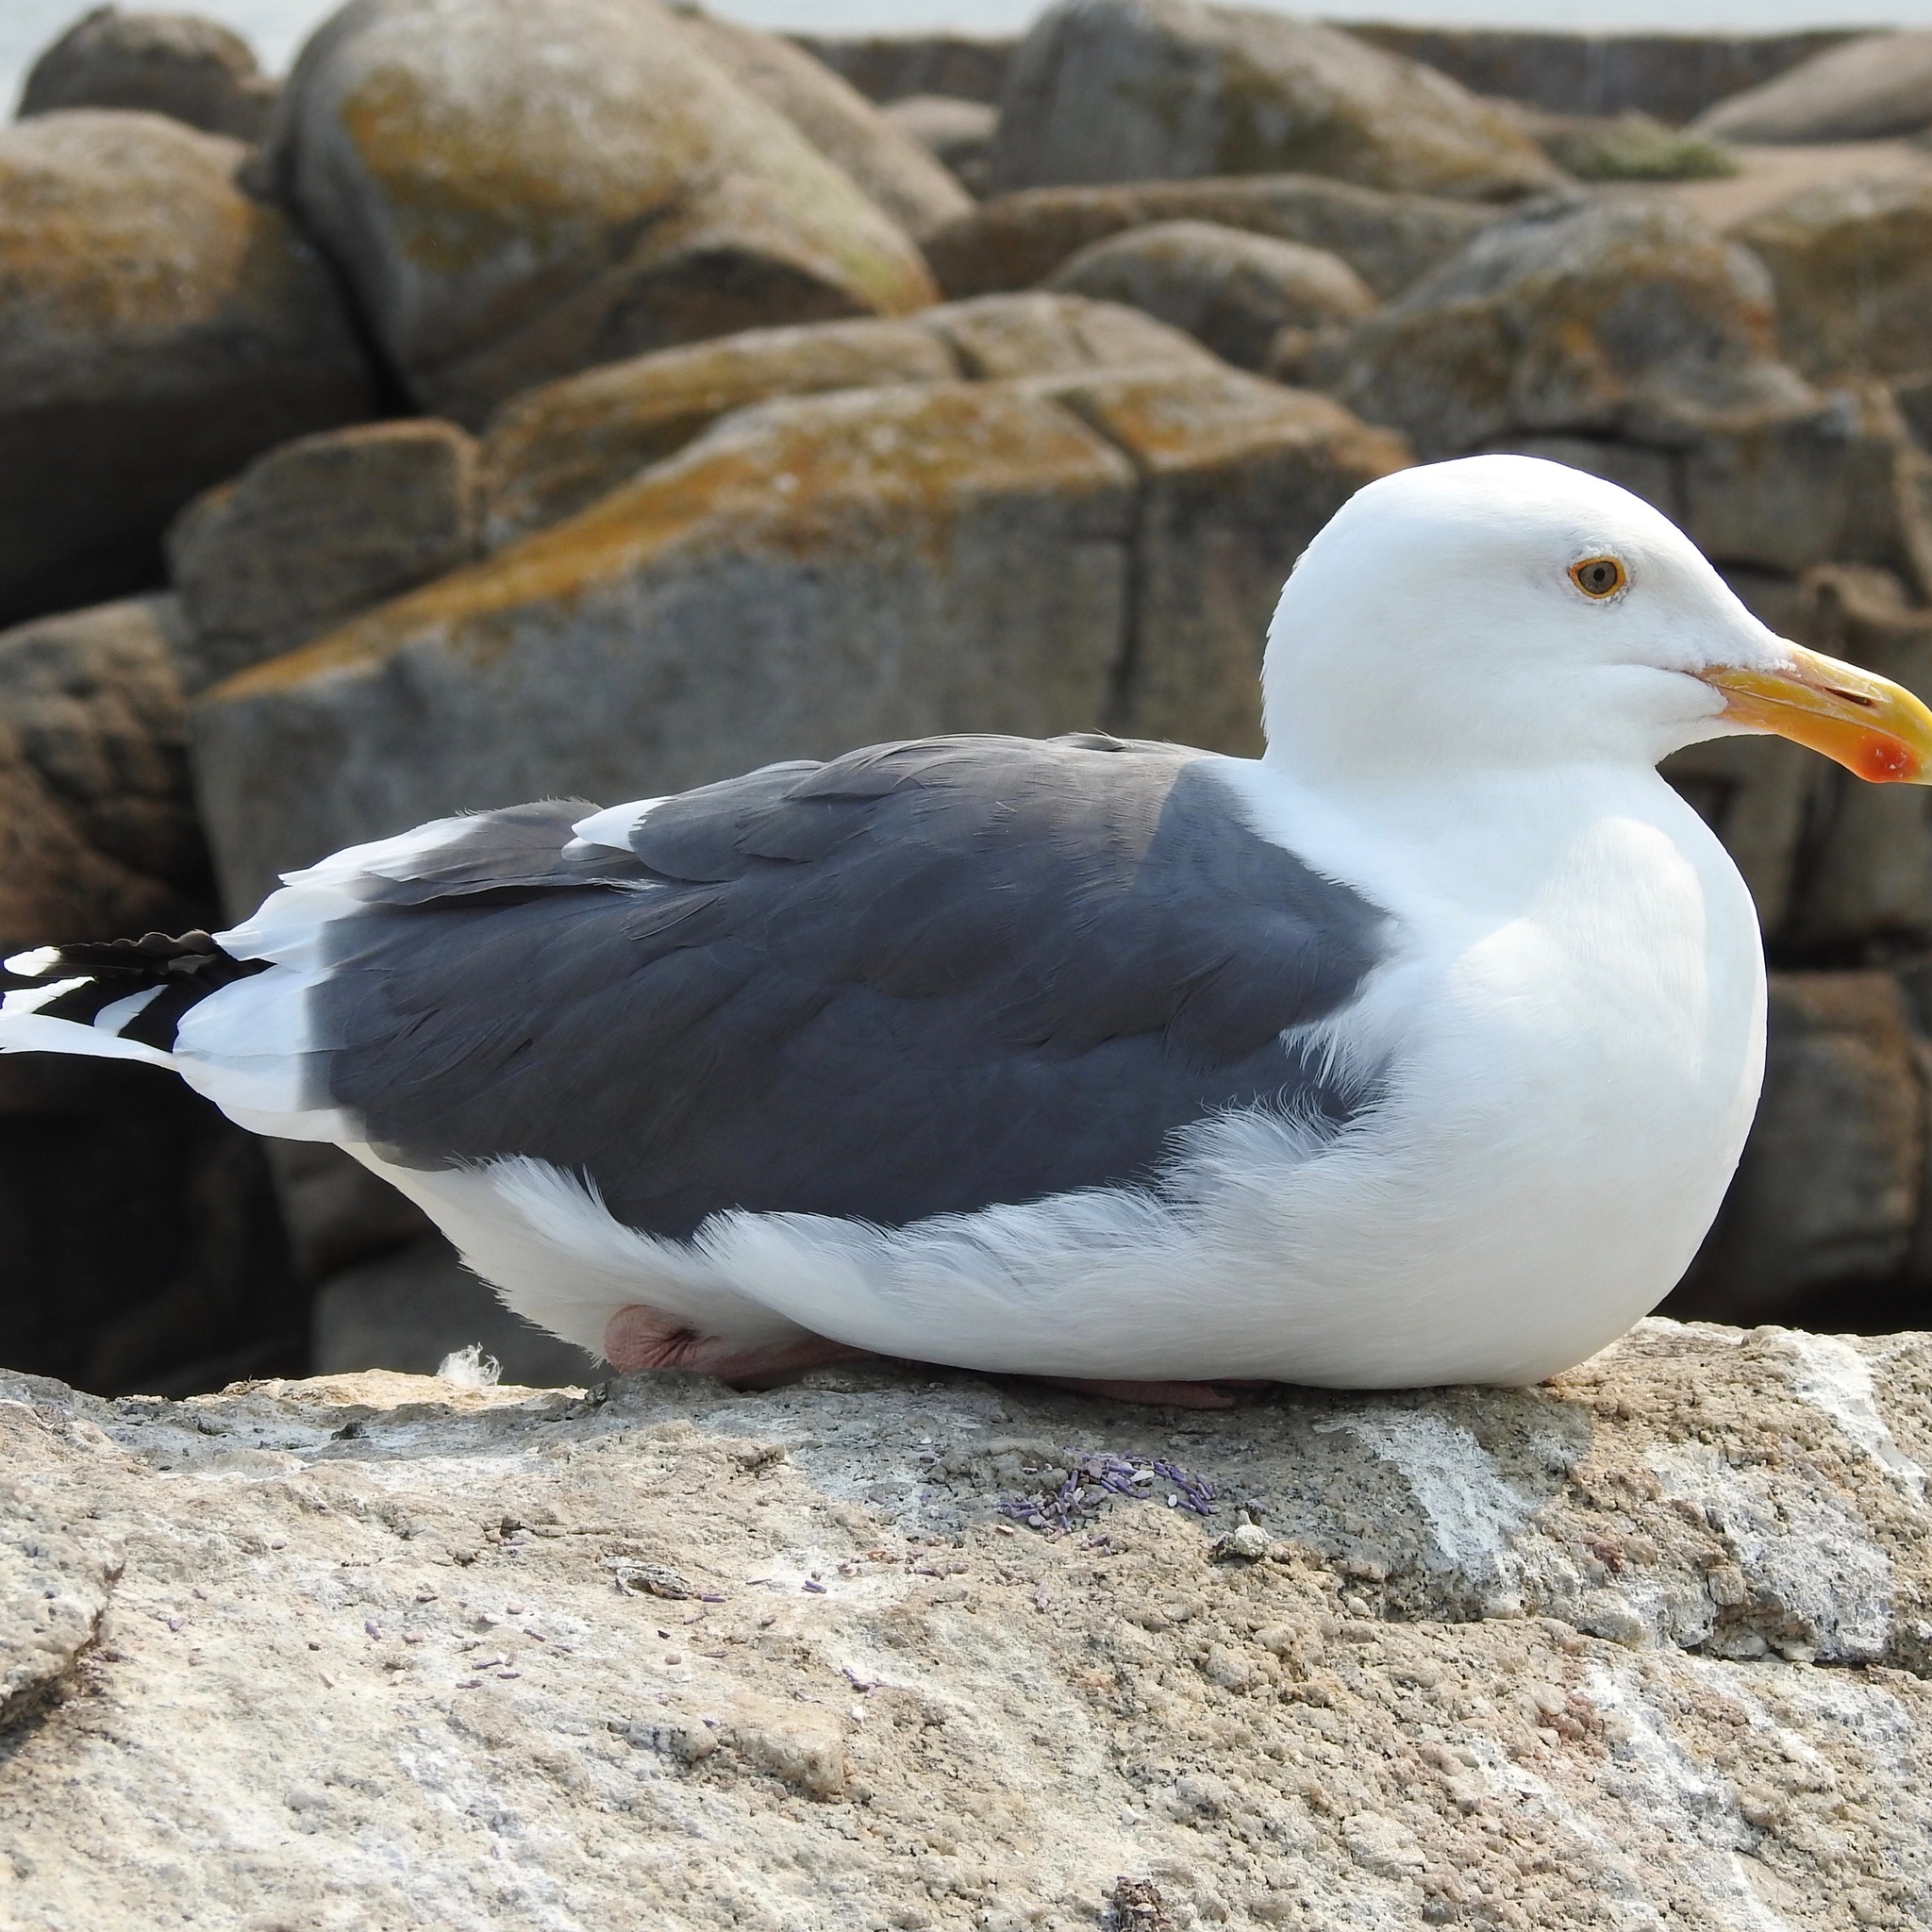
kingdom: Animalia
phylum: Chordata
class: Aves
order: Charadriiformes
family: Laridae
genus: Larus
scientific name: Larus occidentalis
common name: Western gull
